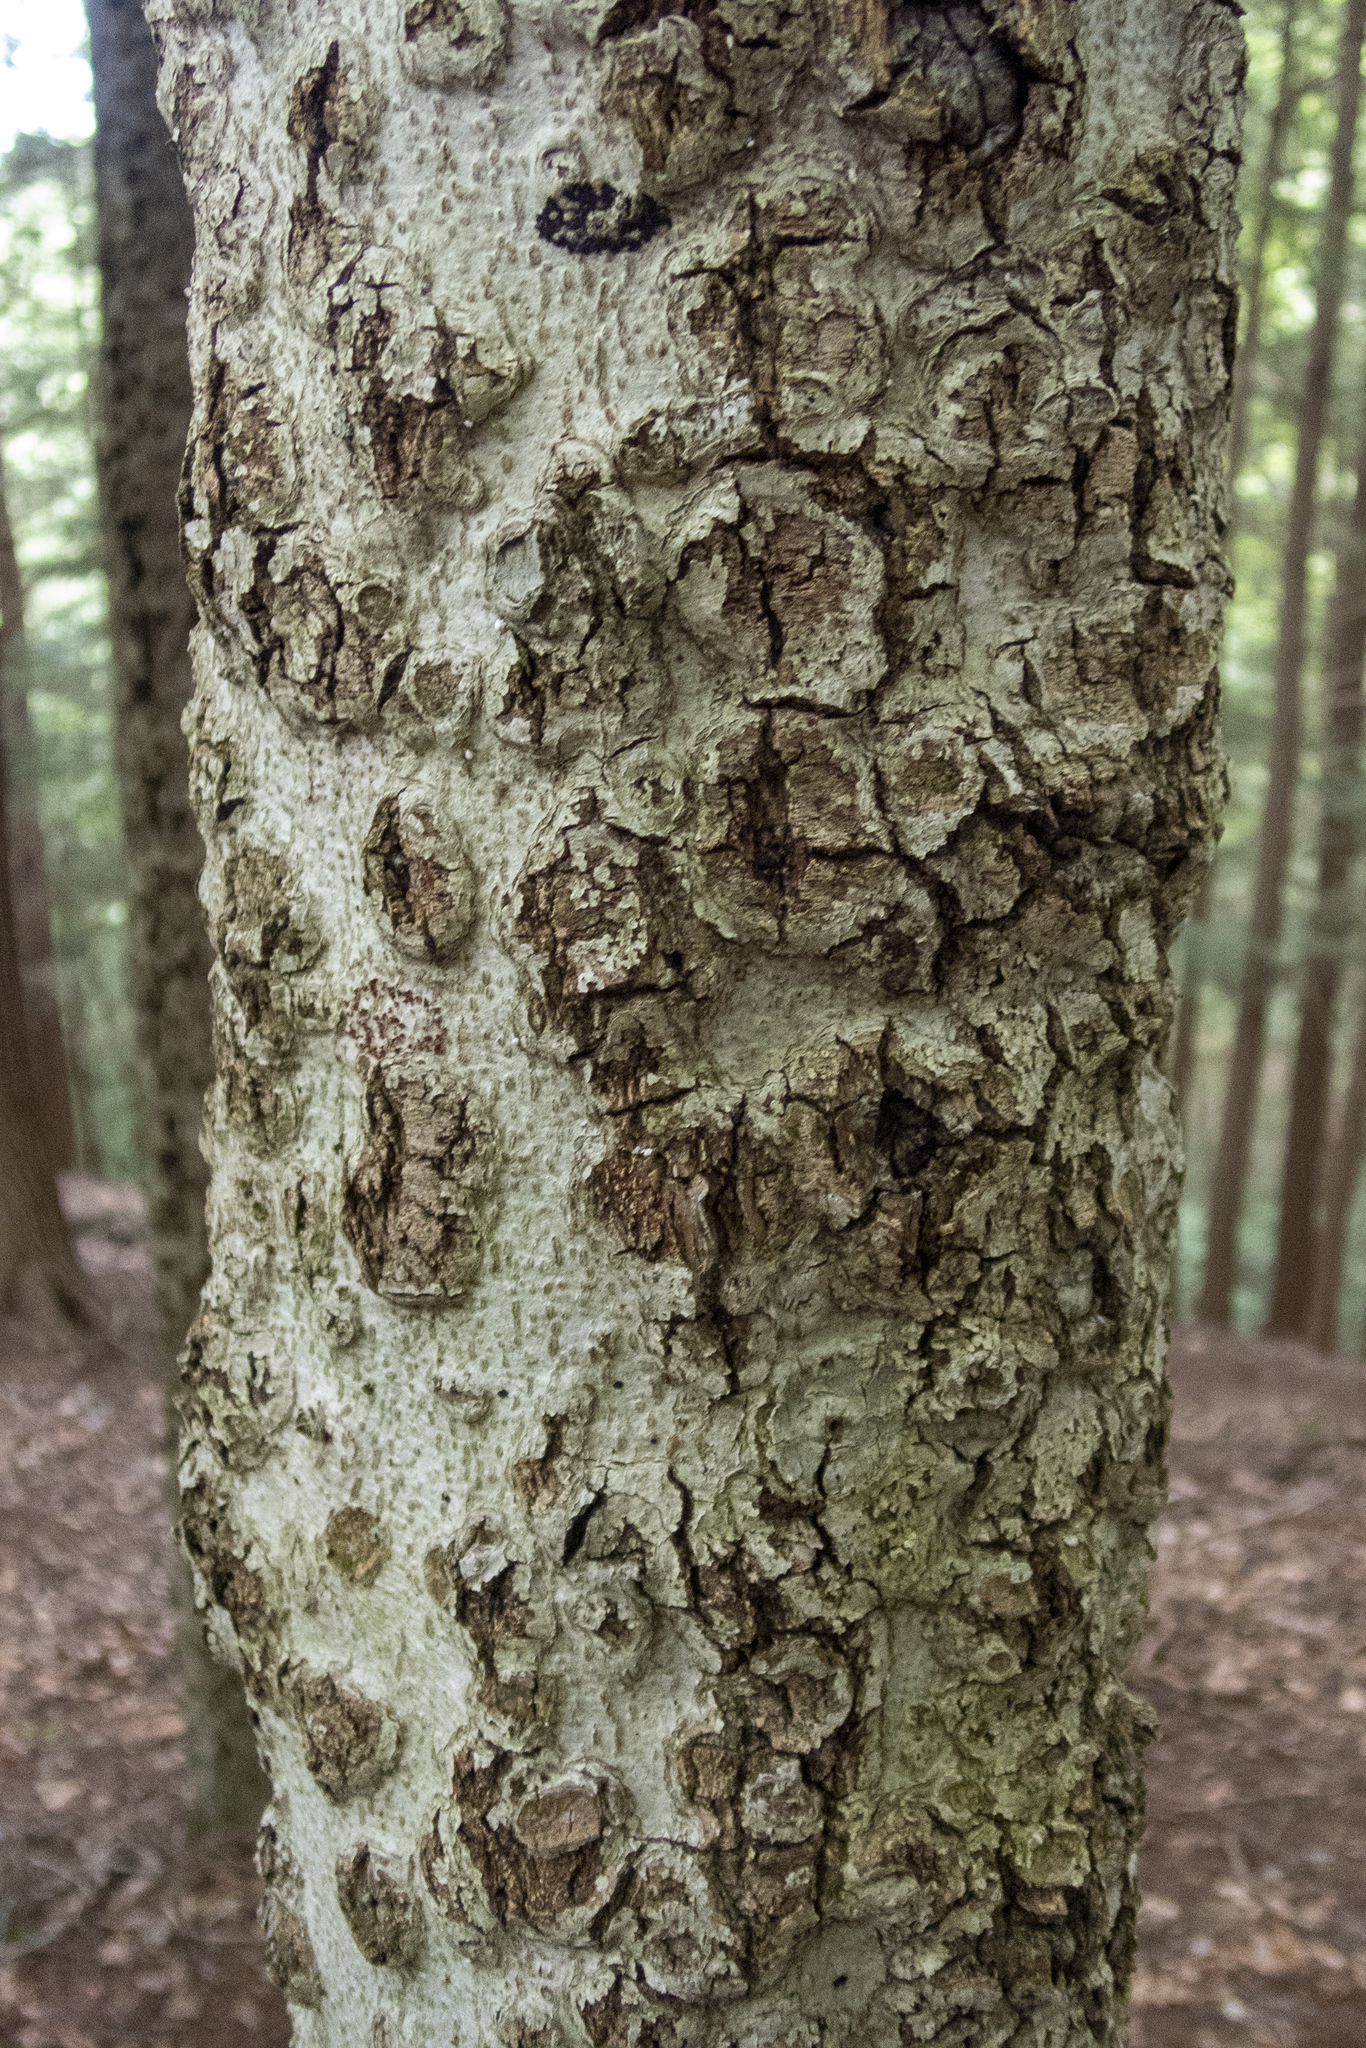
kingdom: Plantae
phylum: Tracheophyta
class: Magnoliopsida
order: Fagales
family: Fagaceae
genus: Fagus
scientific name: Fagus grandifolia
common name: American beech
